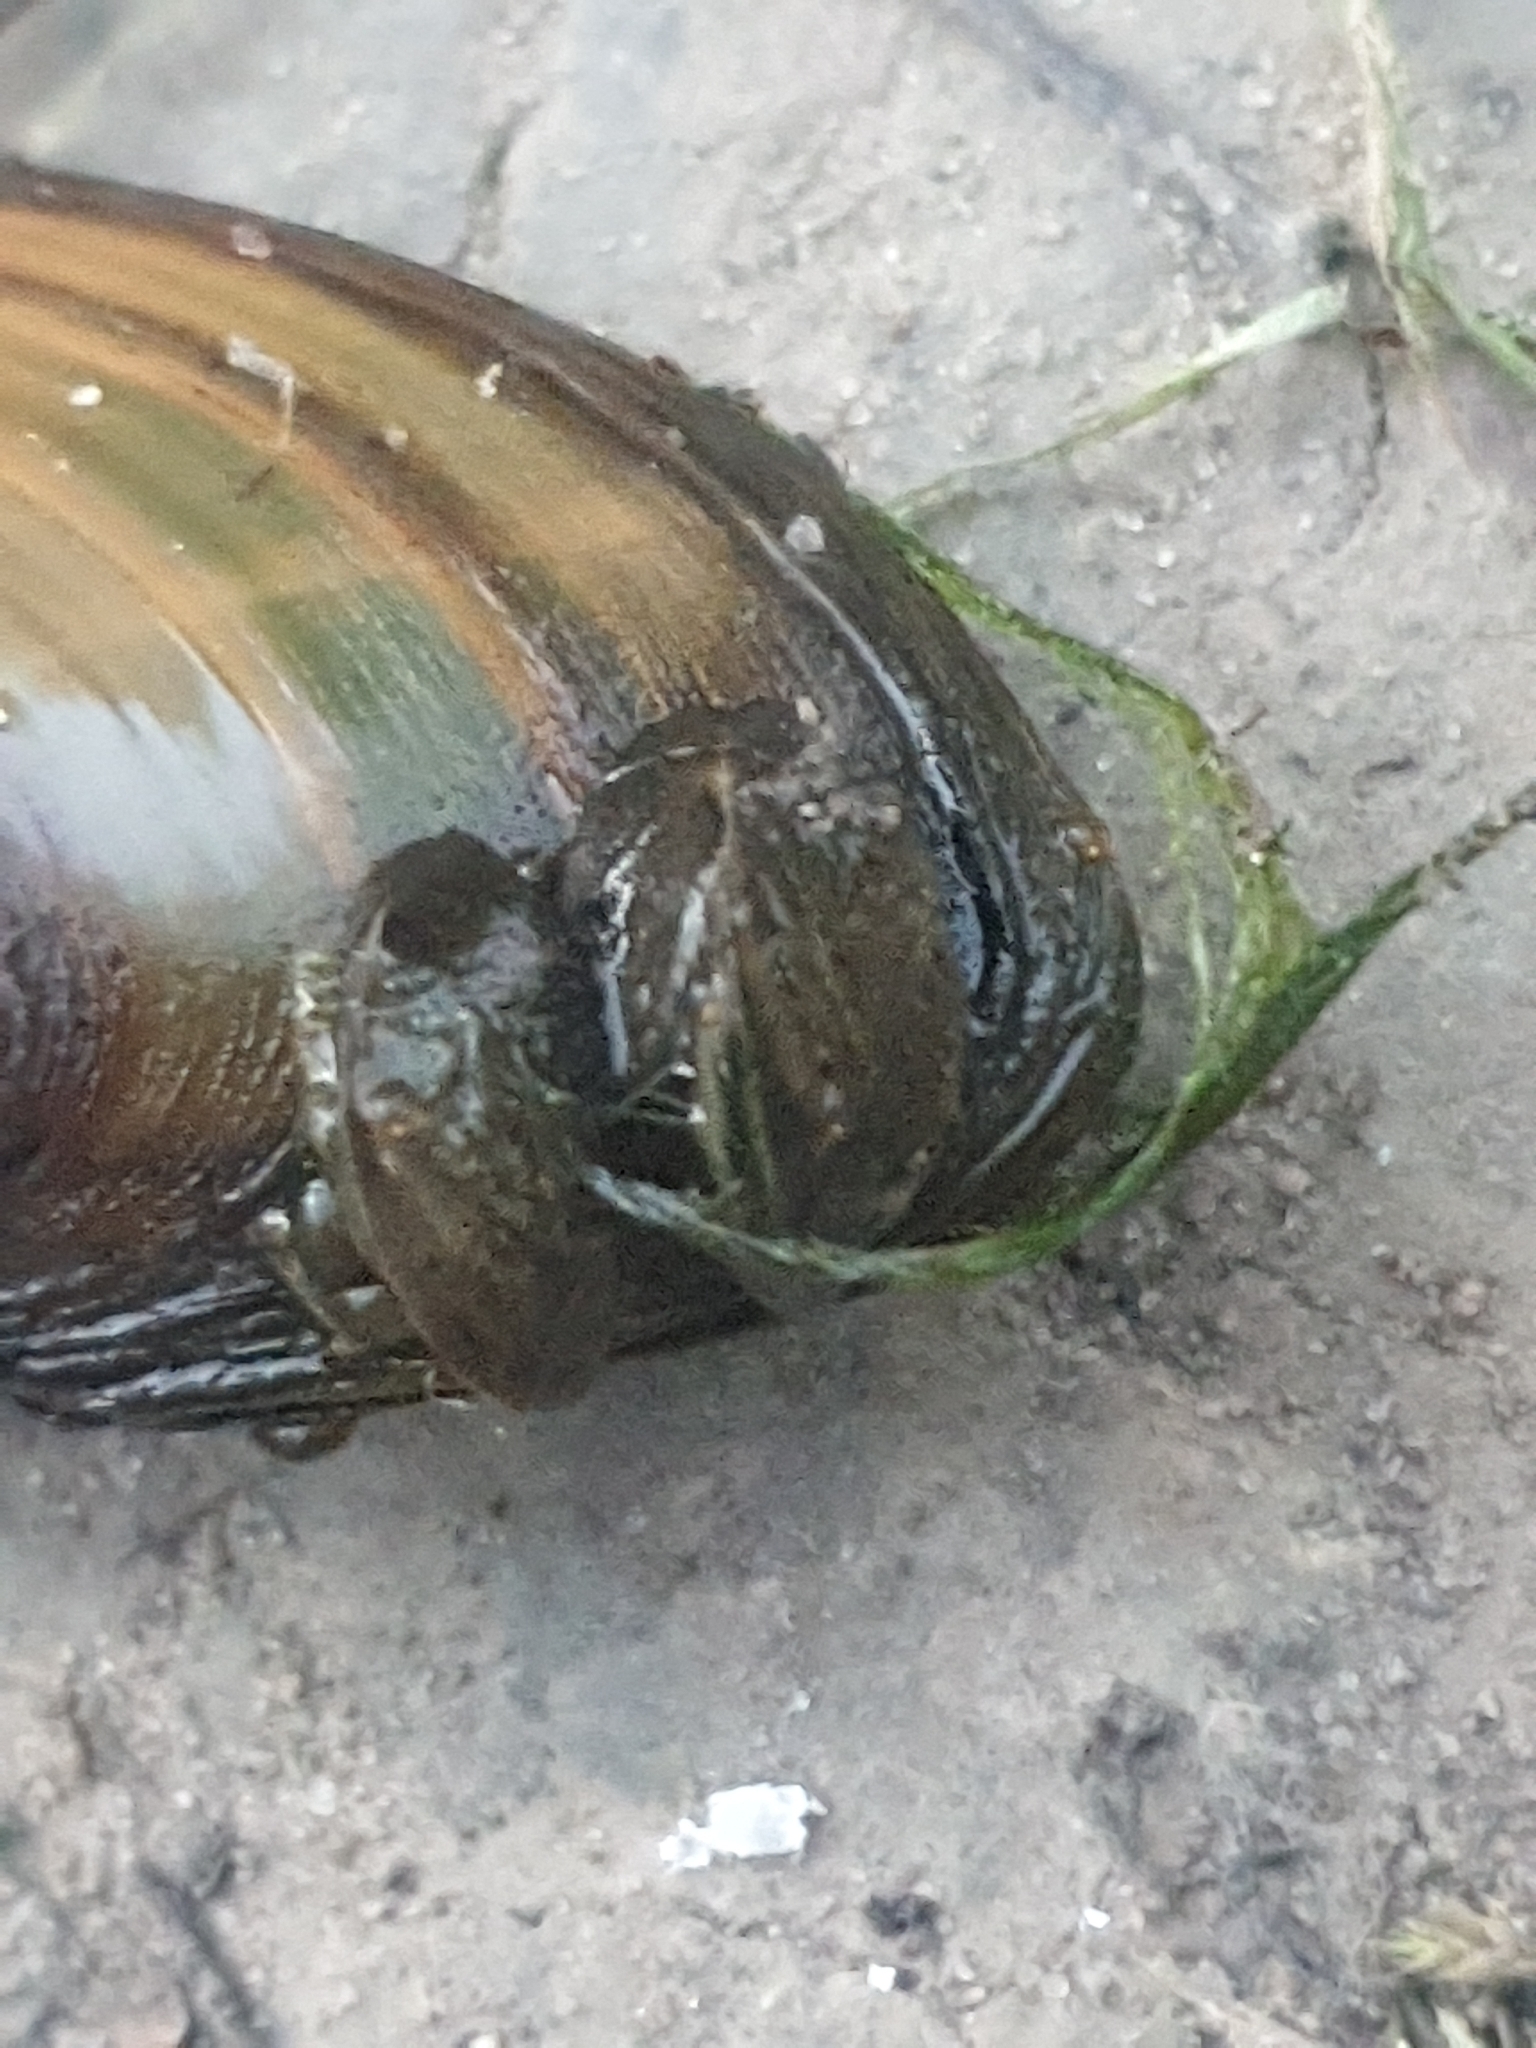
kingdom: Animalia
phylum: Mollusca
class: Bivalvia
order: Myida
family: Dreissenidae
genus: Dreissena
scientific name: Dreissena polymorpha
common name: Zebra mussel
